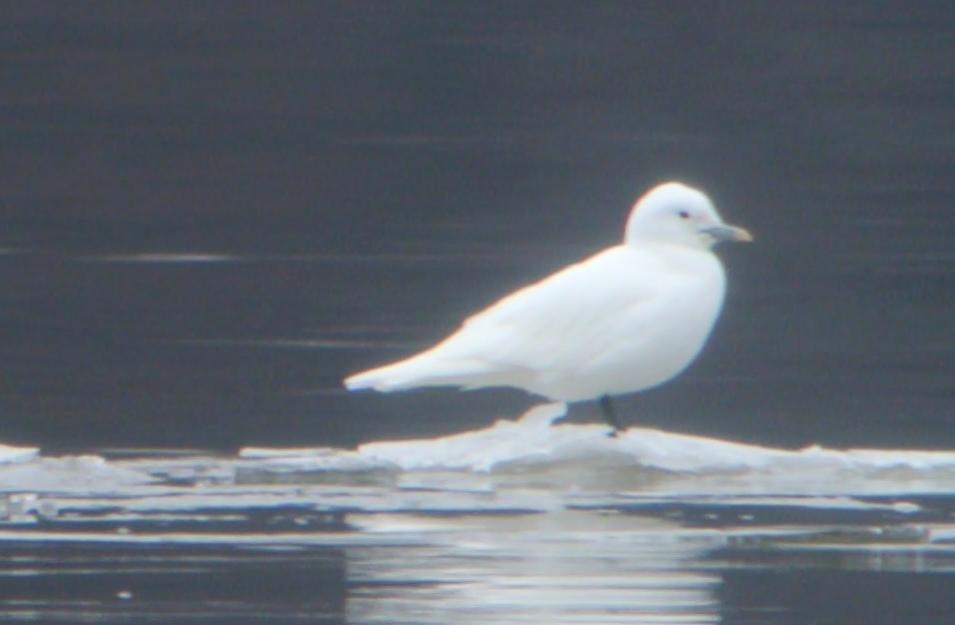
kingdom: Animalia
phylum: Chordata
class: Aves
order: Charadriiformes
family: Laridae
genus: Pagophila
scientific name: Pagophila eburnea
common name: Ivory gull
